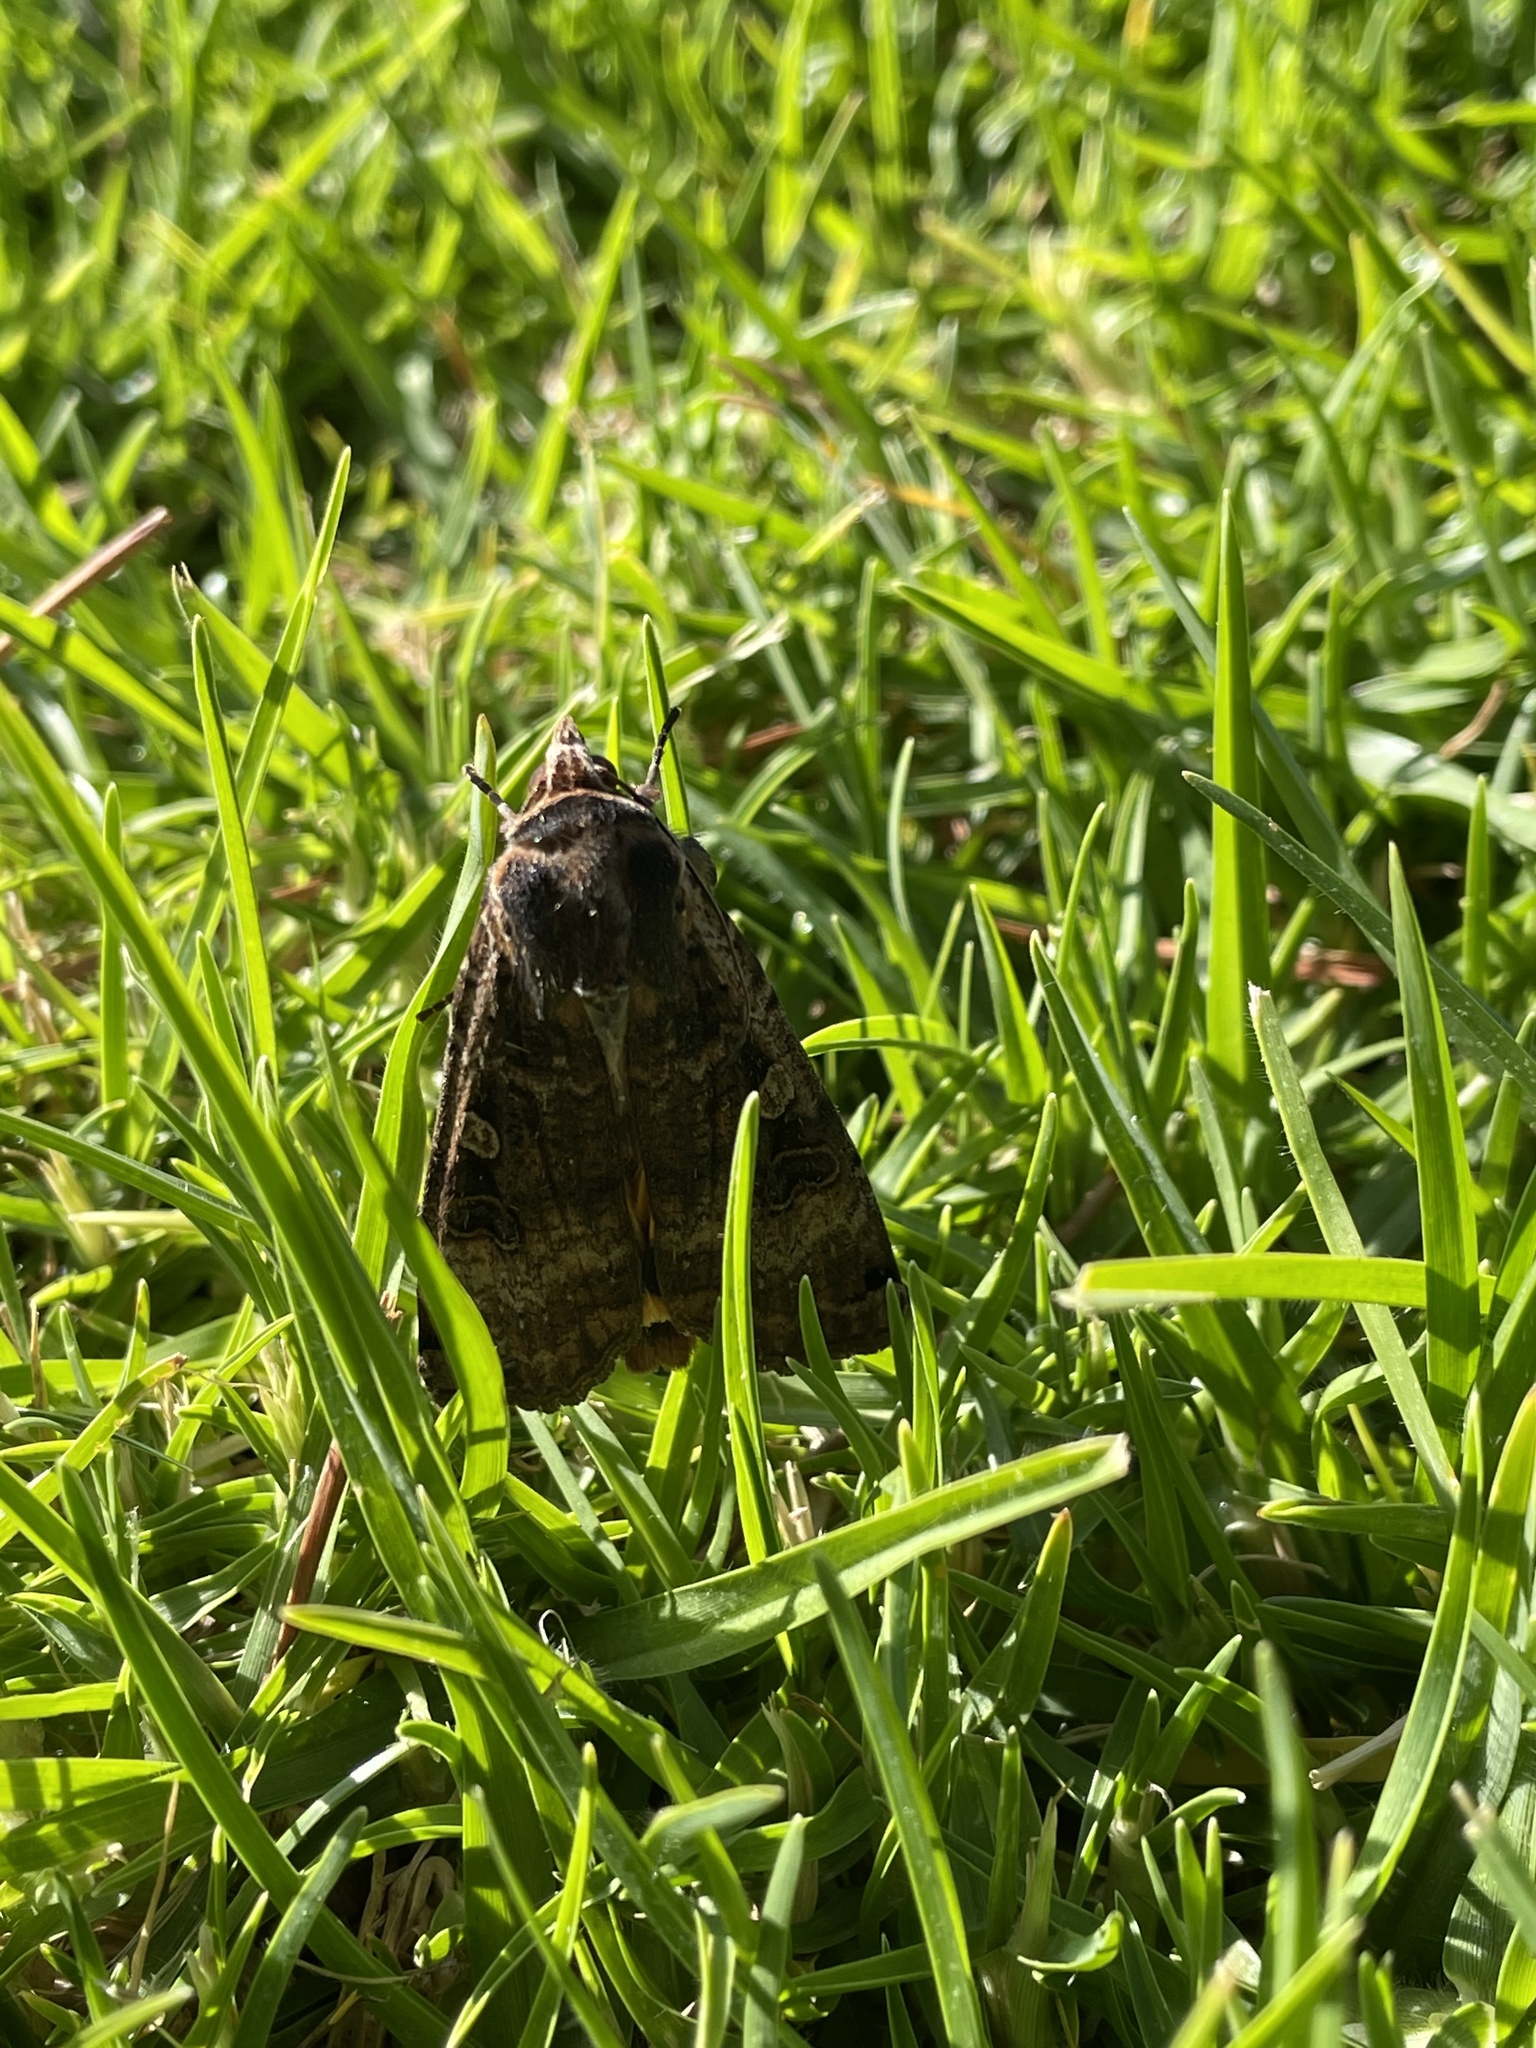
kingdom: Animalia
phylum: Arthropoda
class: Insecta
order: Lepidoptera
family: Noctuidae
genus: Noctua
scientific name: Noctua pronuba
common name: Large yellow underwing
